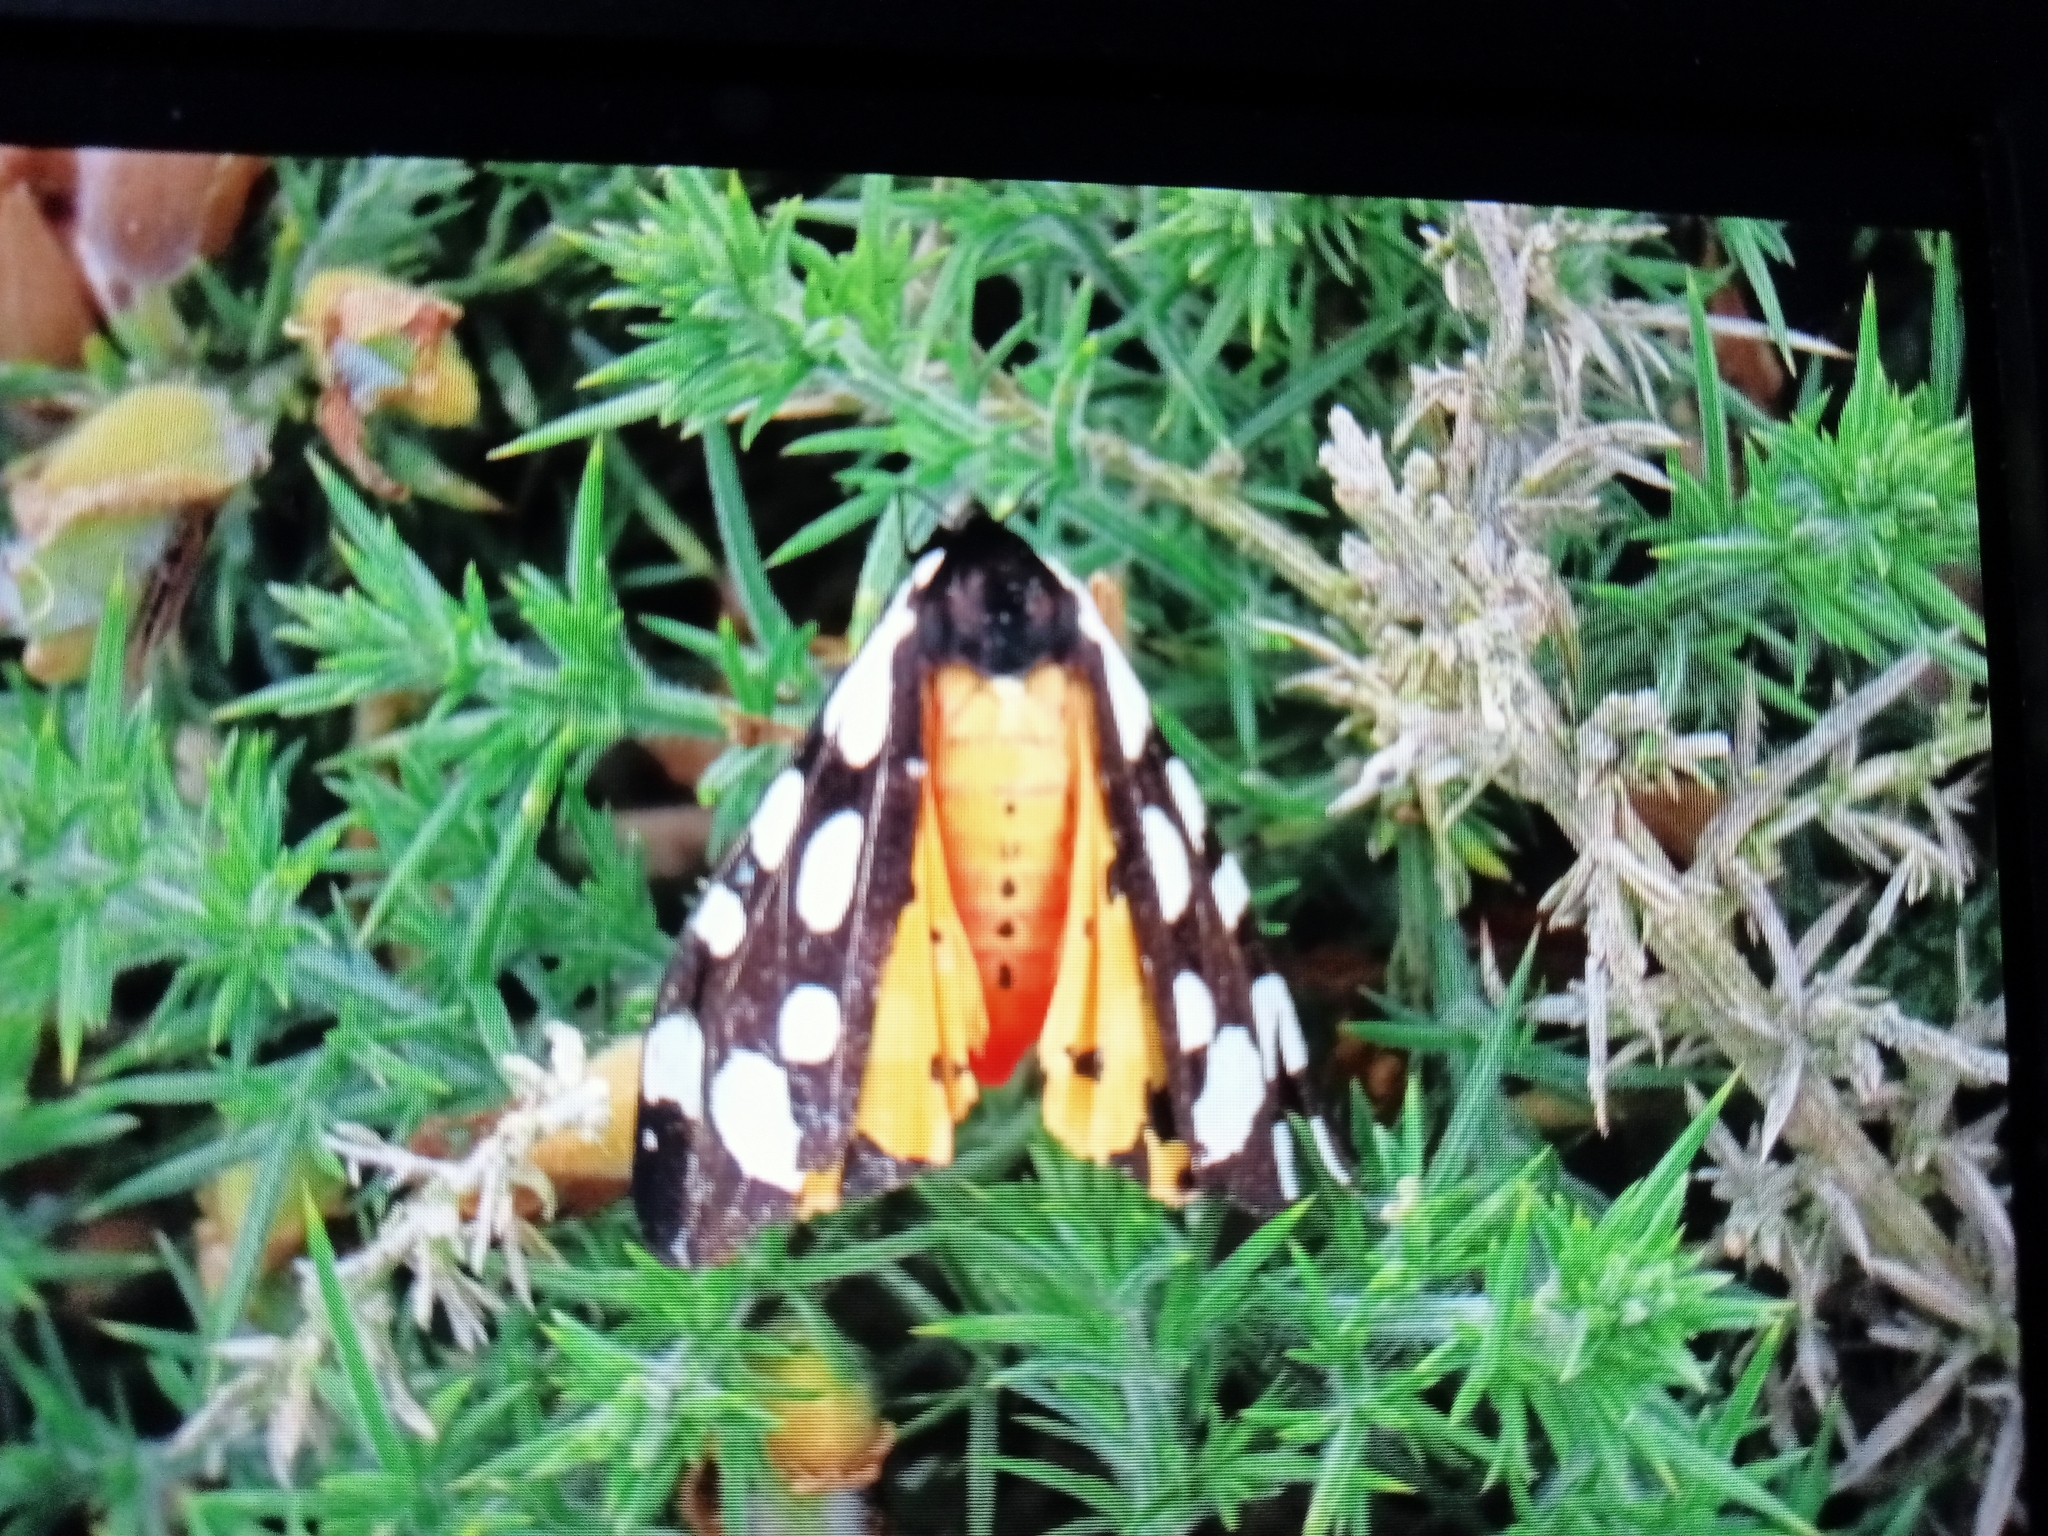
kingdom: Animalia
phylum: Arthropoda
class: Insecta
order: Lepidoptera
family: Erebidae
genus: Epicallia
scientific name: Epicallia villica
